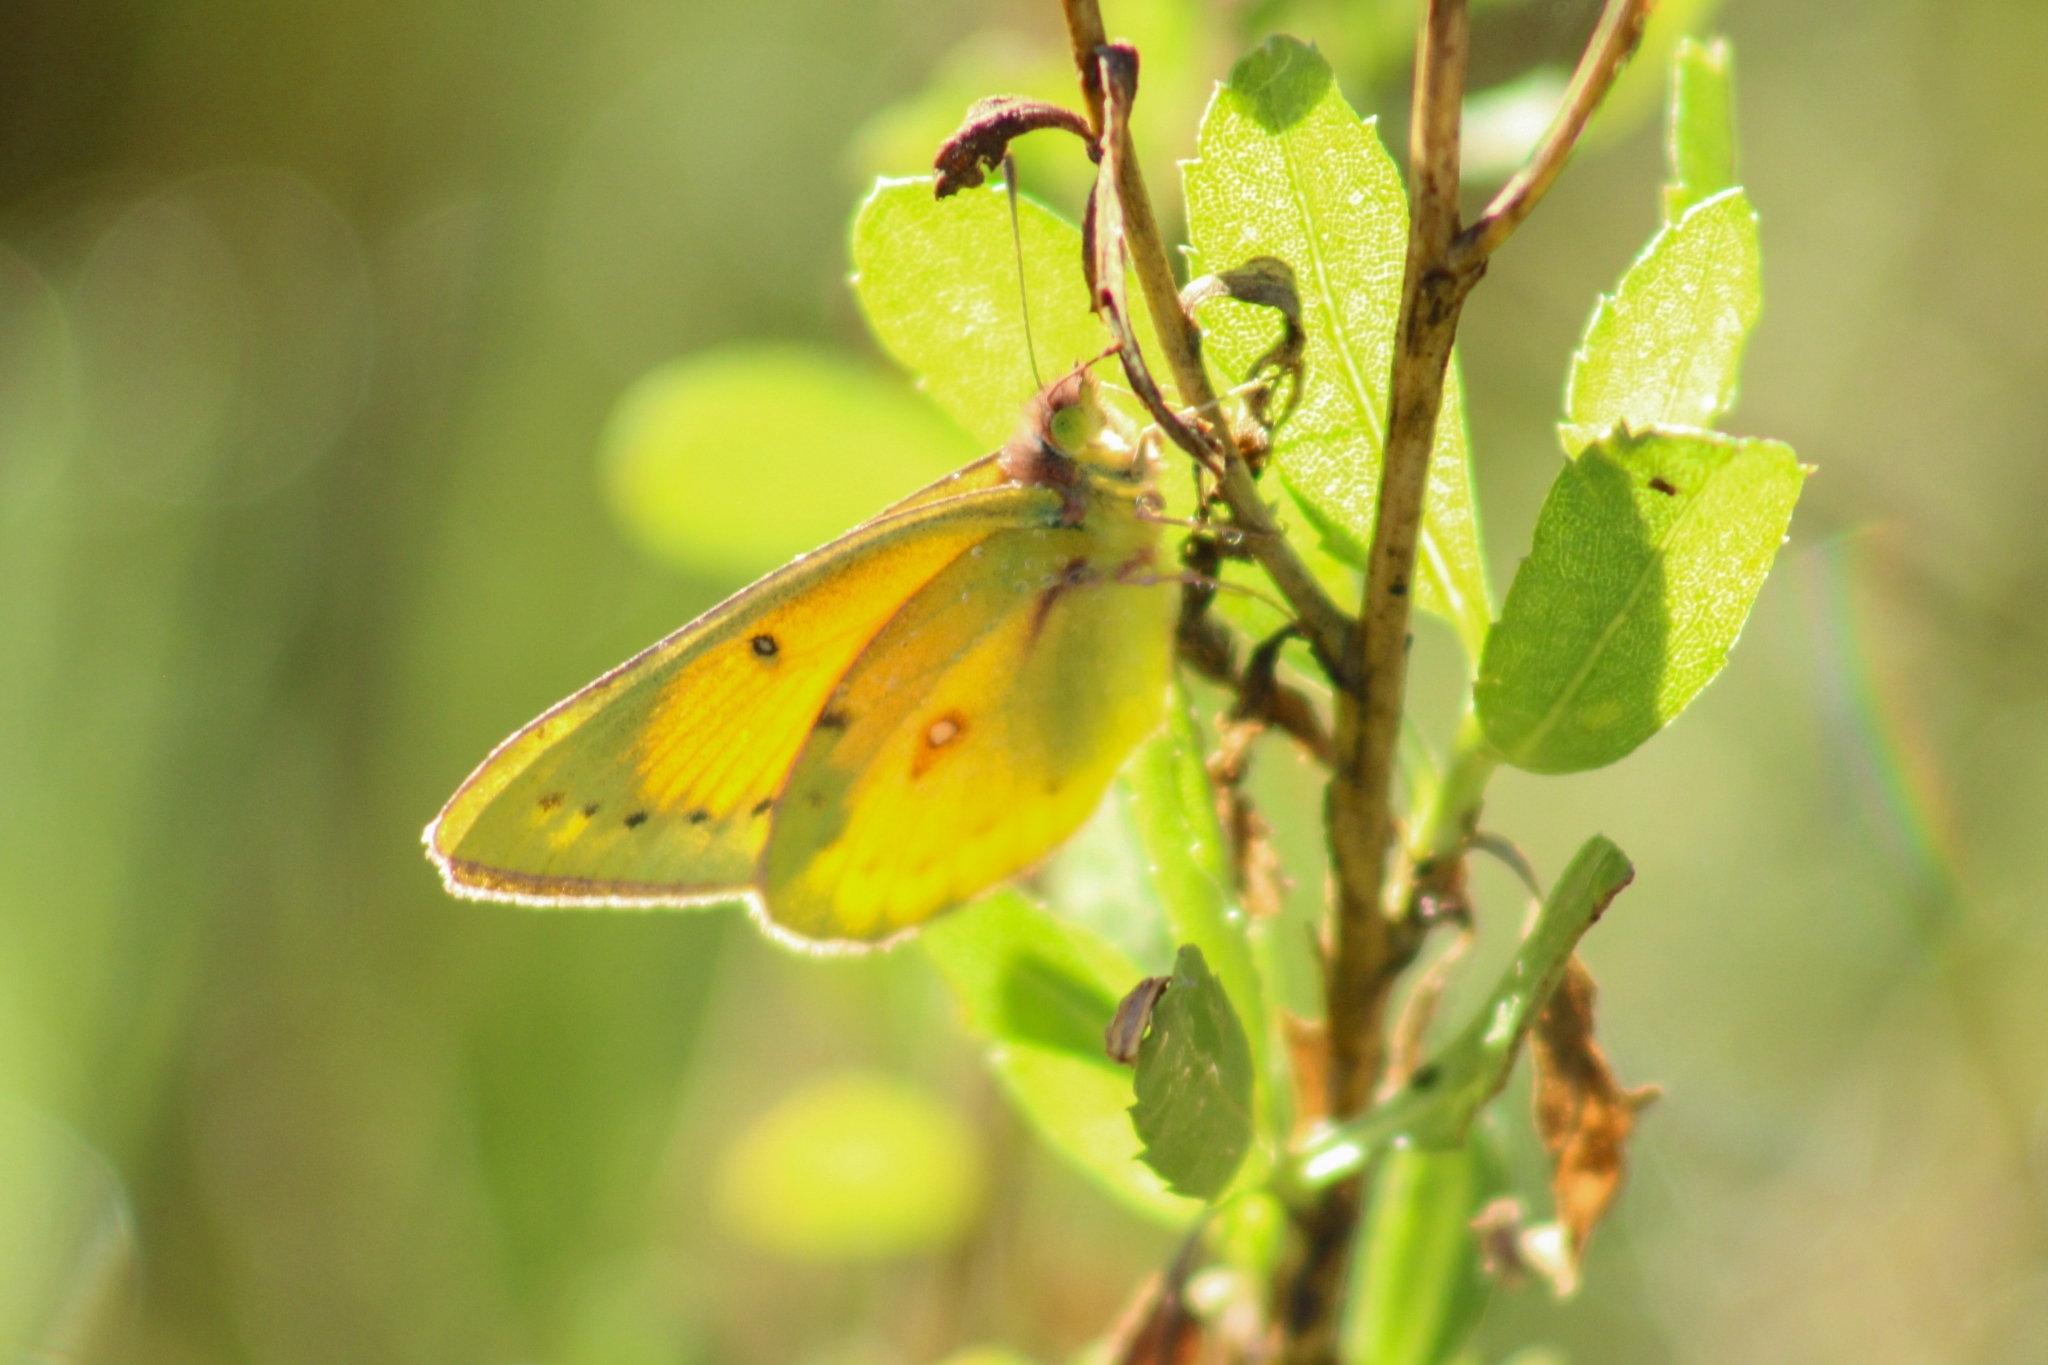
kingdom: Animalia
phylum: Arthropoda
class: Insecta
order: Lepidoptera
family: Pieridae
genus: Colias
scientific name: Colias lesbia
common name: Lesbia clouded yellow
